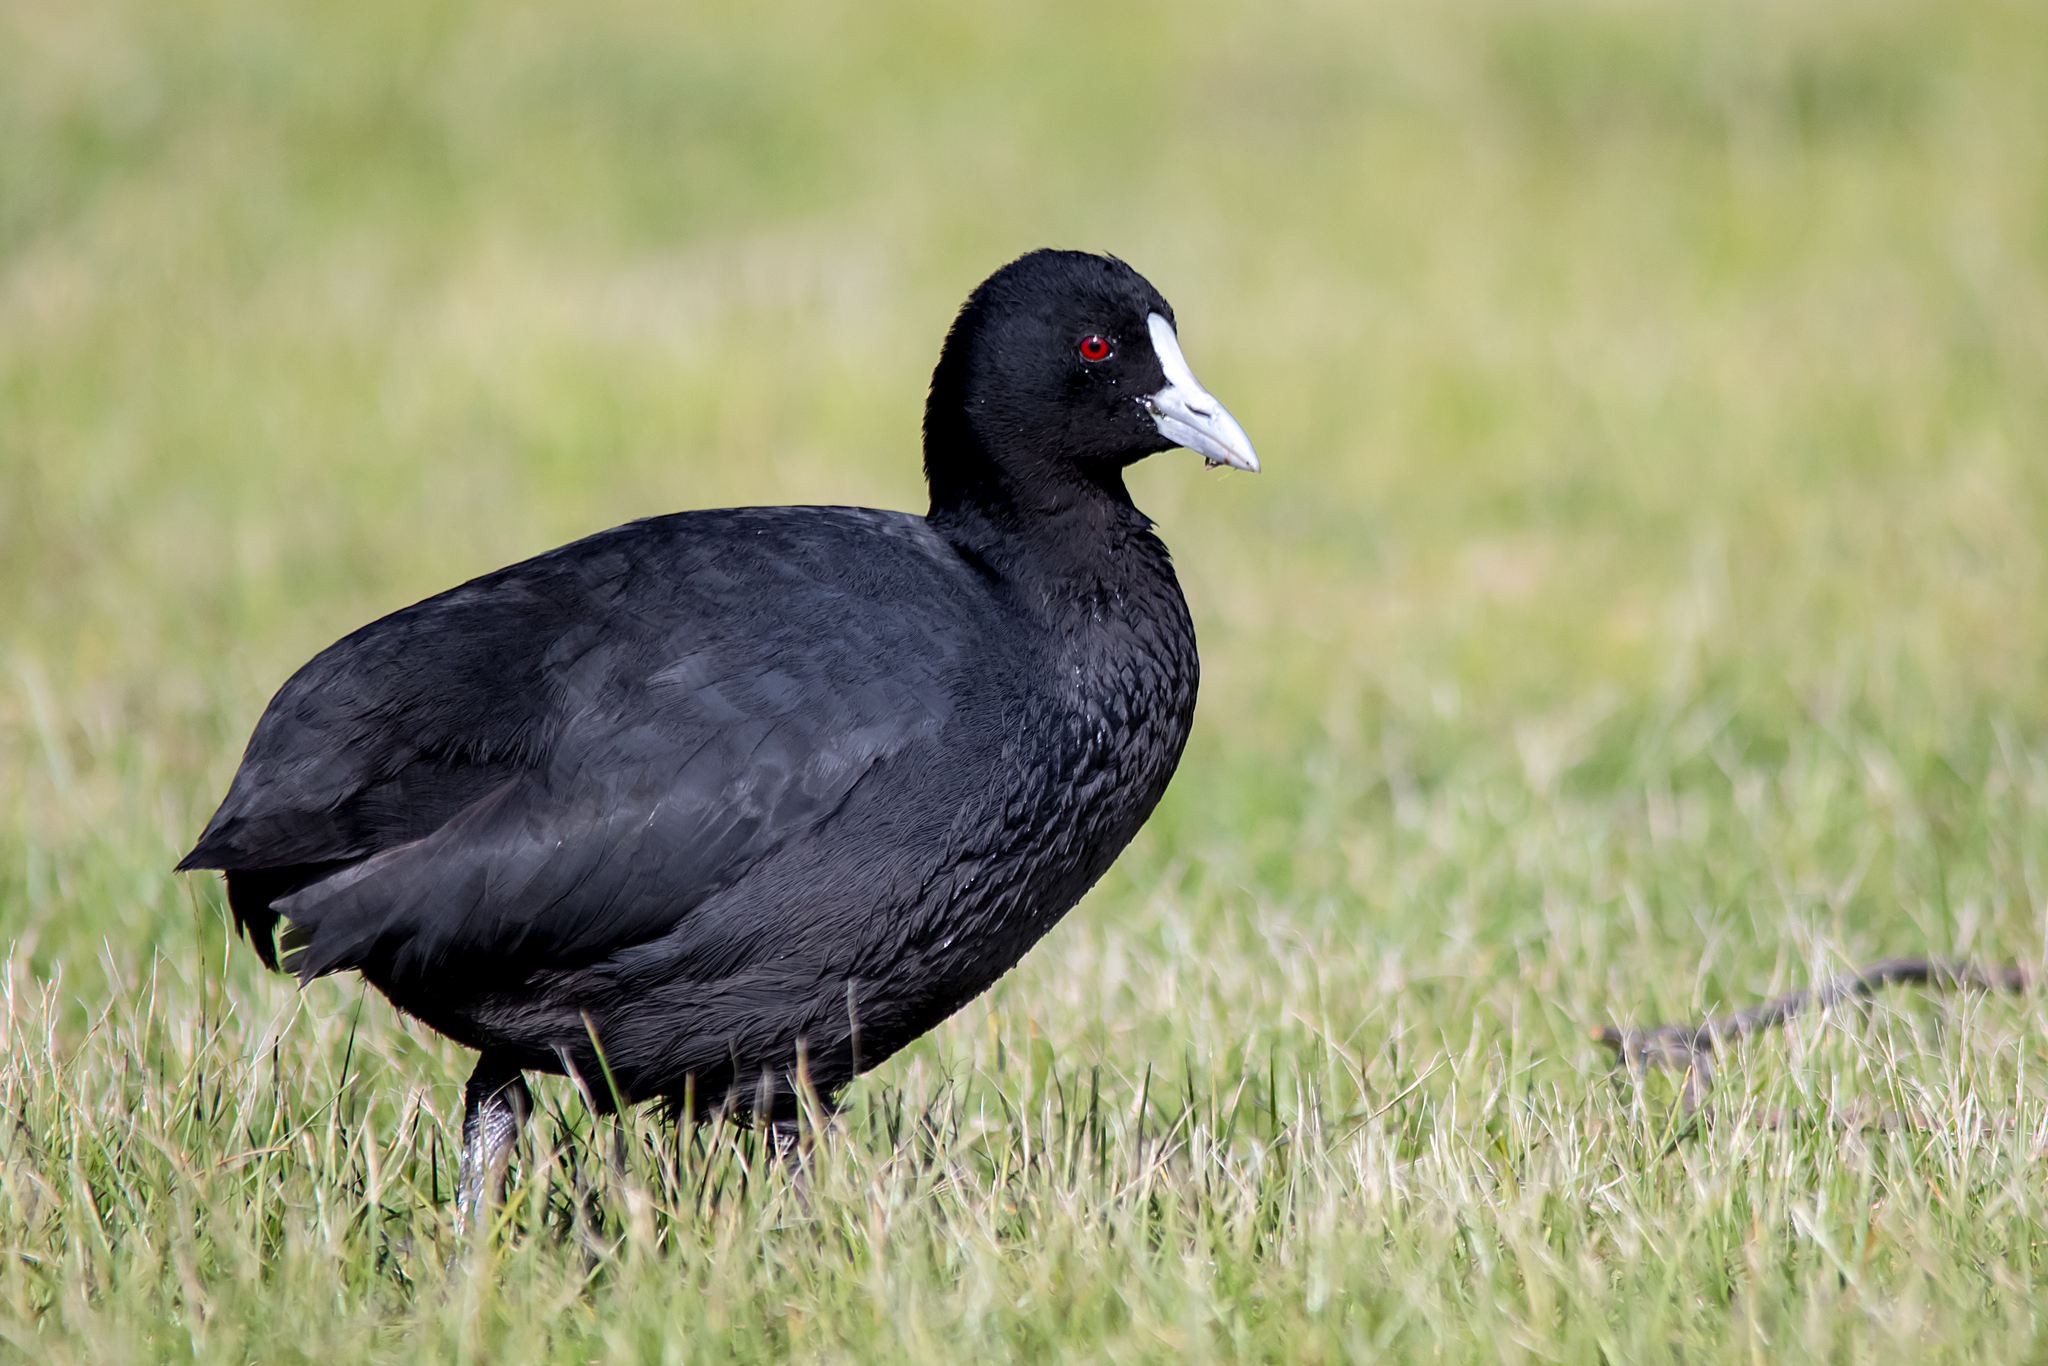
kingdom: Animalia
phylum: Chordata
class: Aves
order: Gruiformes
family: Rallidae
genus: Fulica
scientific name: Fulica atra
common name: Eurasian coot
